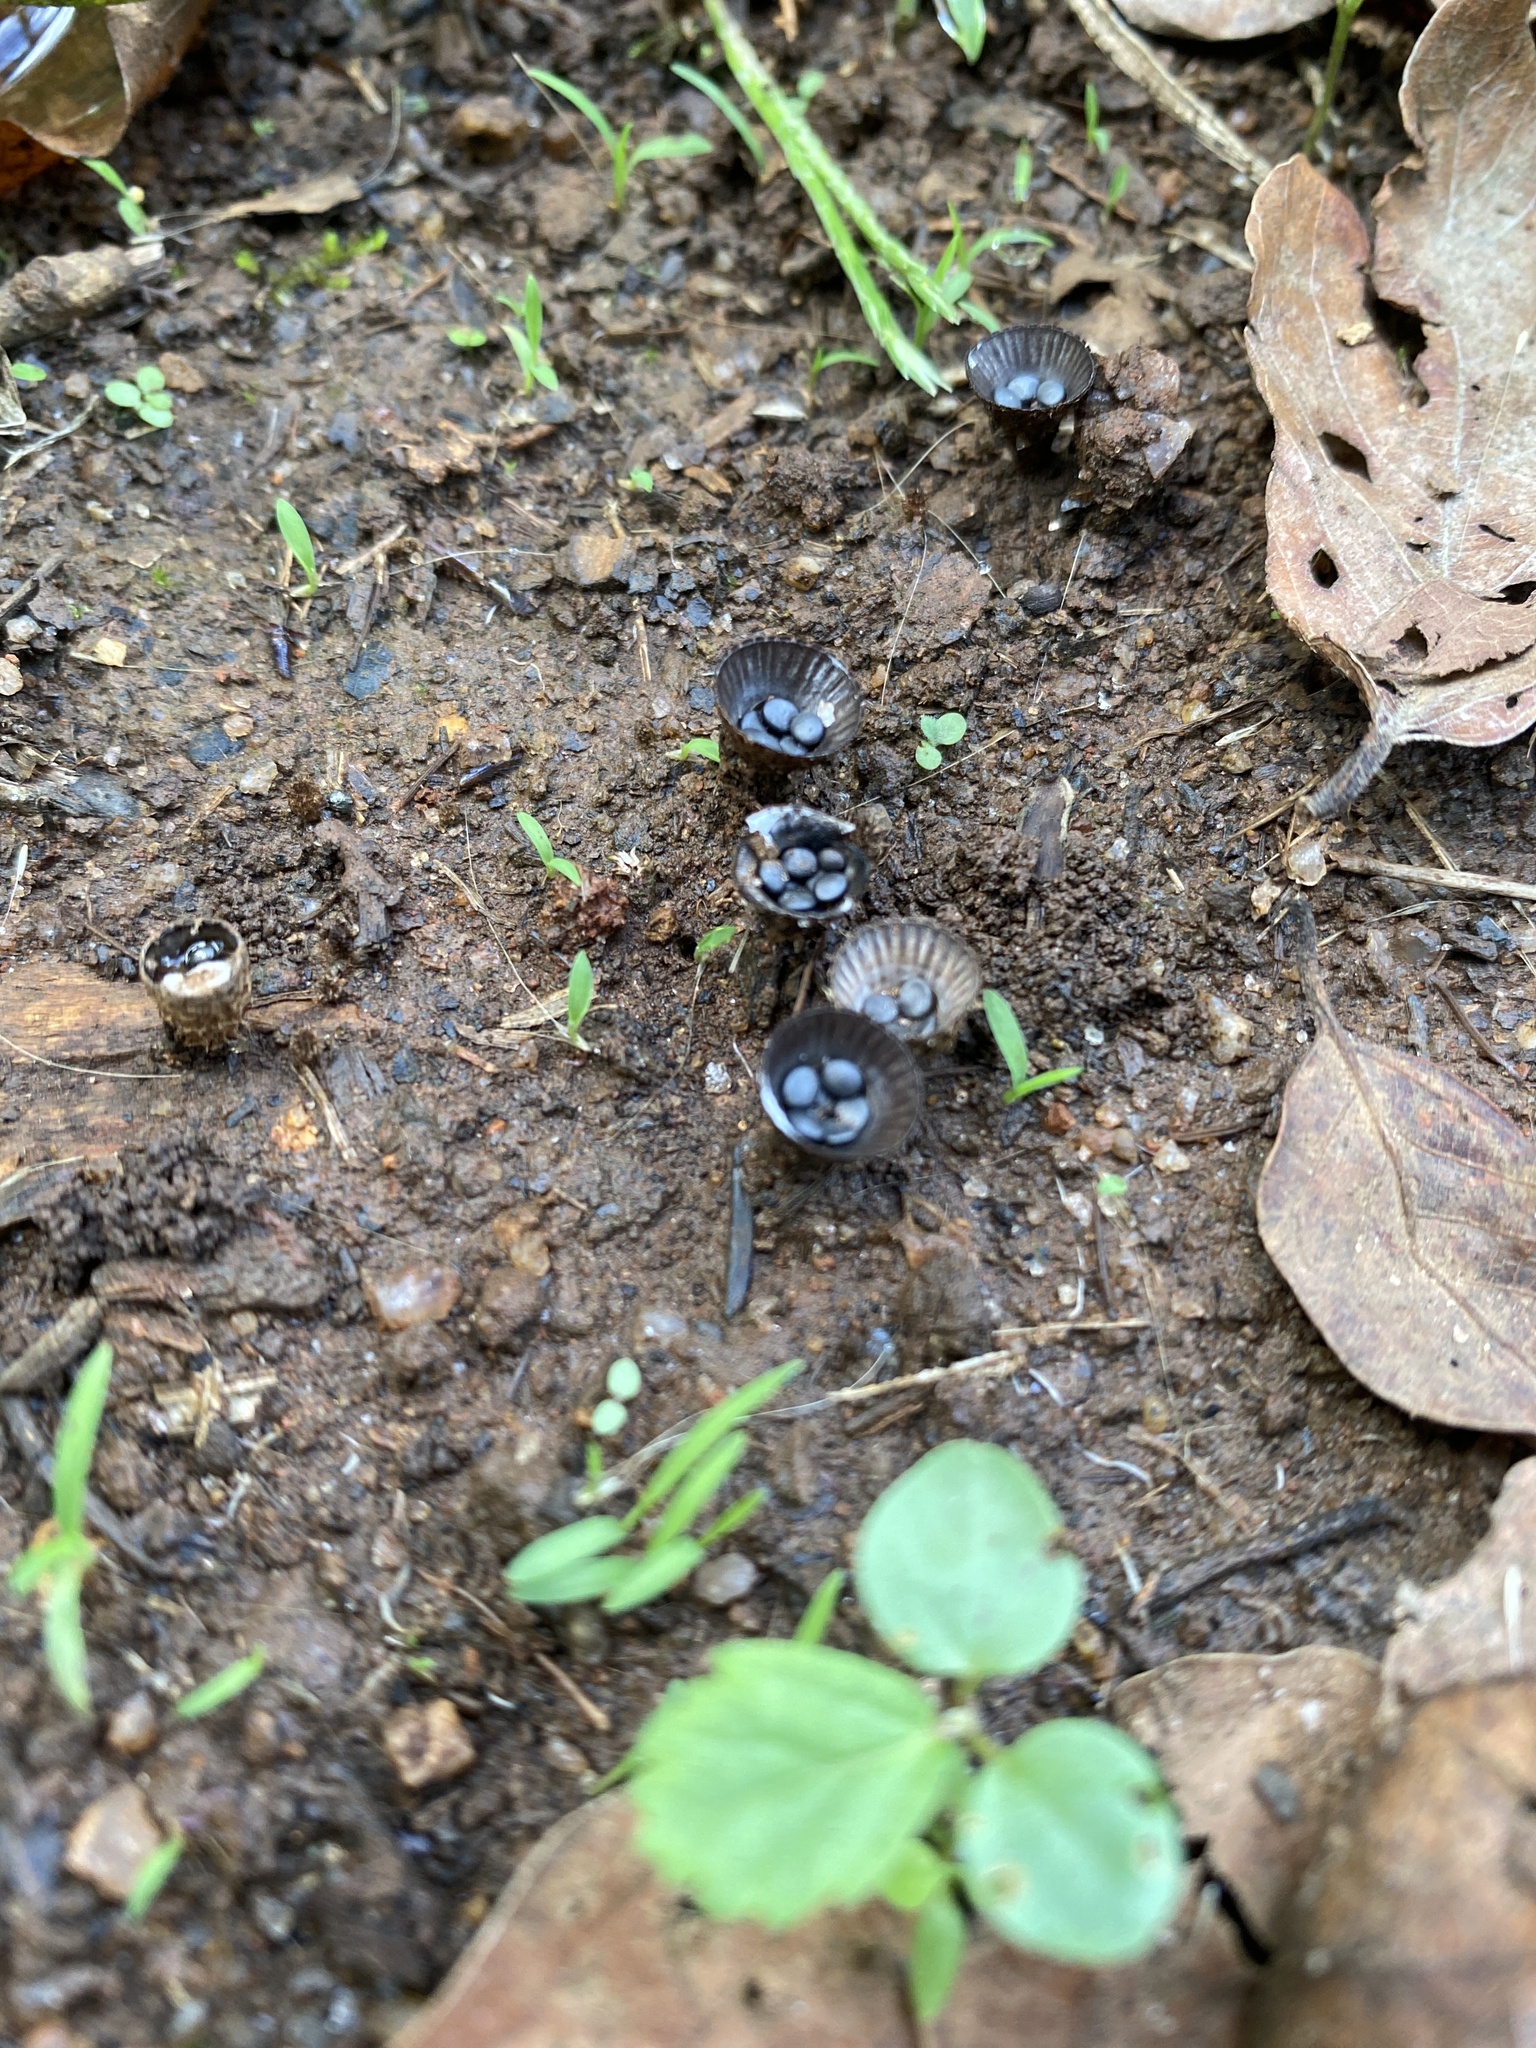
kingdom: Fungi
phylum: Basidiomycota
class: Agaricomycetes
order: Agaricales
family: Agaricaceae
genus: Cyathus
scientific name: Cyathus striatus
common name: Fluted bird's nest
